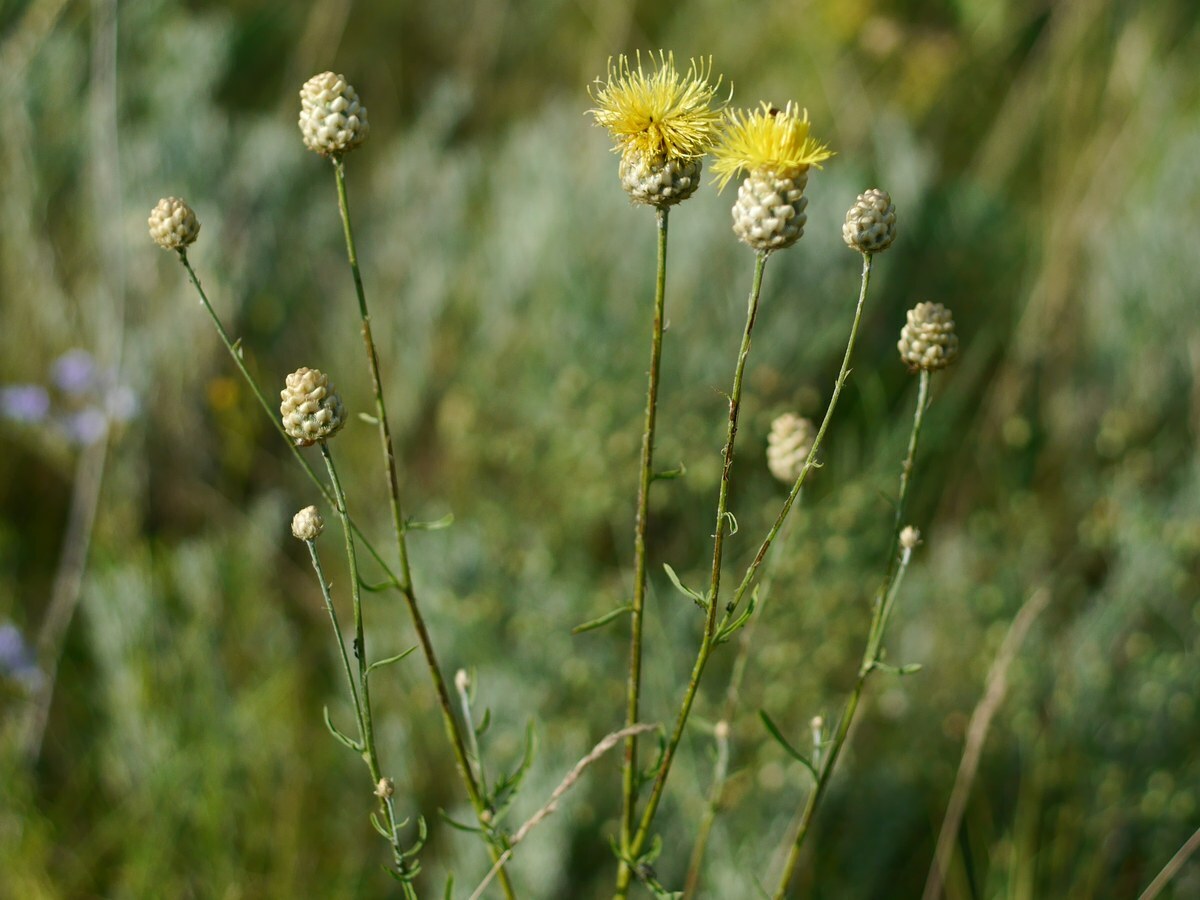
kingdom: Plantae
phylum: Tracheophyta
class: Magnoliopsida
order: Asterales
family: Asteraceae
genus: Centaurea
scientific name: Centaurea orientalis
